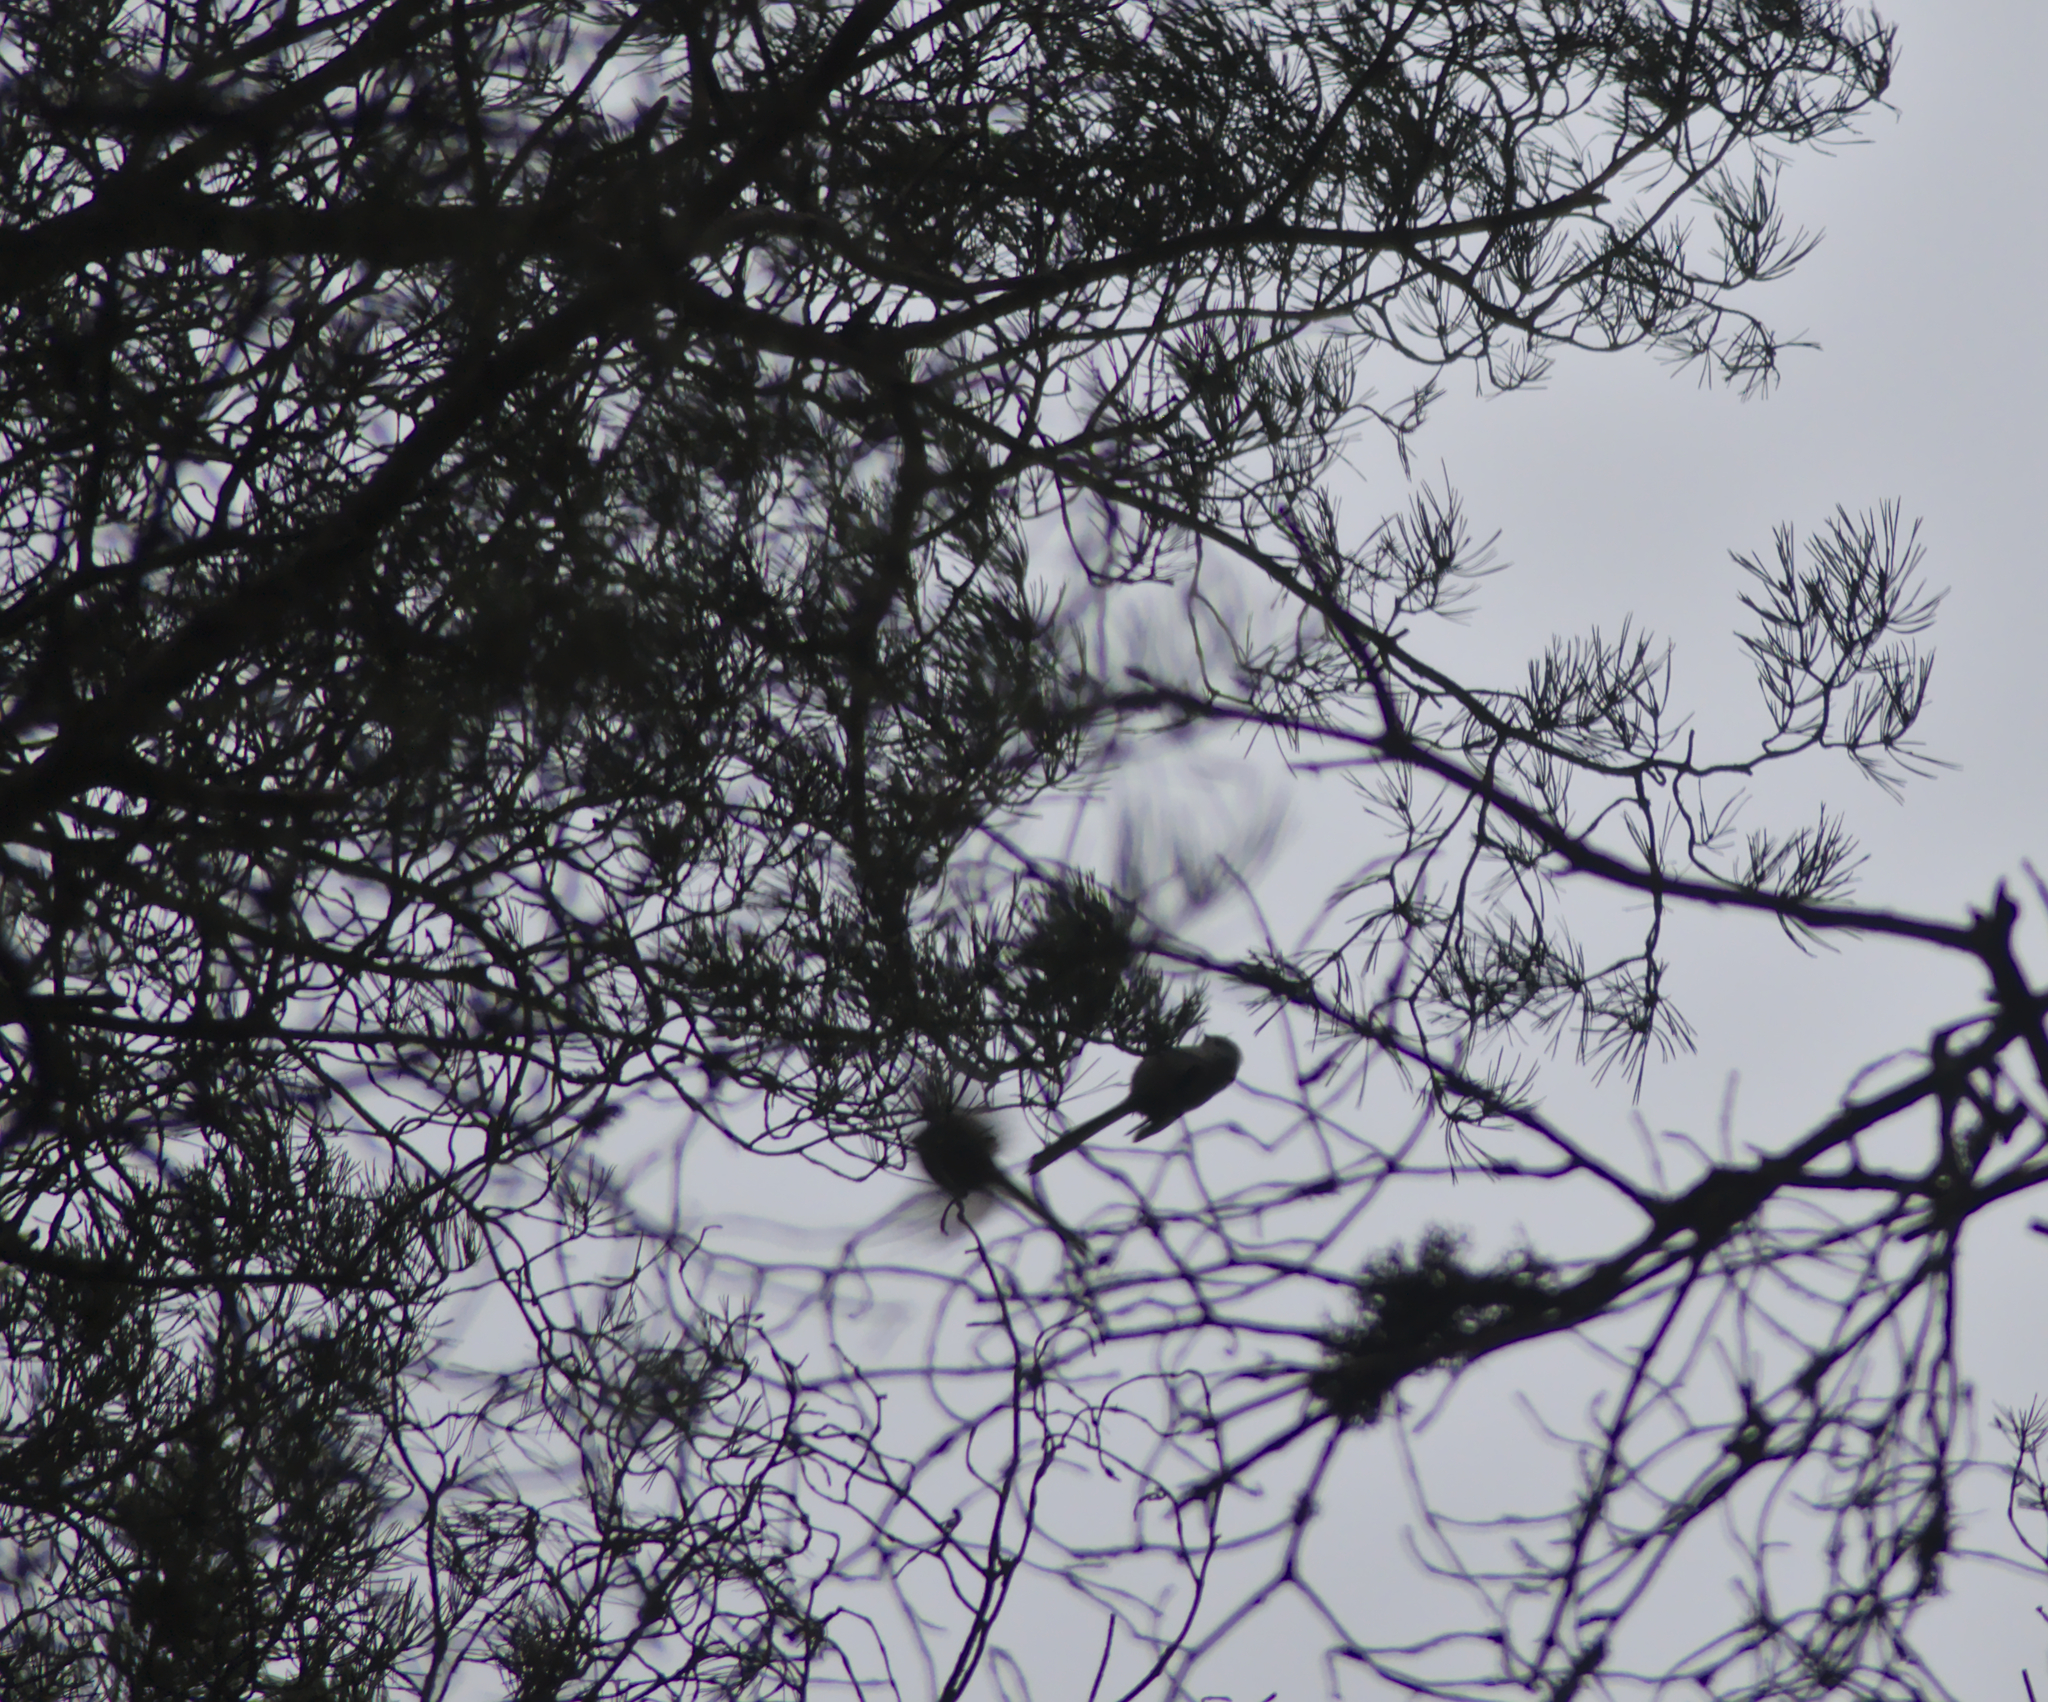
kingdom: Animalia
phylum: Chordata
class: Aves
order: Passeriformes
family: Aegithalidae
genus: Aegithalos
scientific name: Aegithalos caudatus
